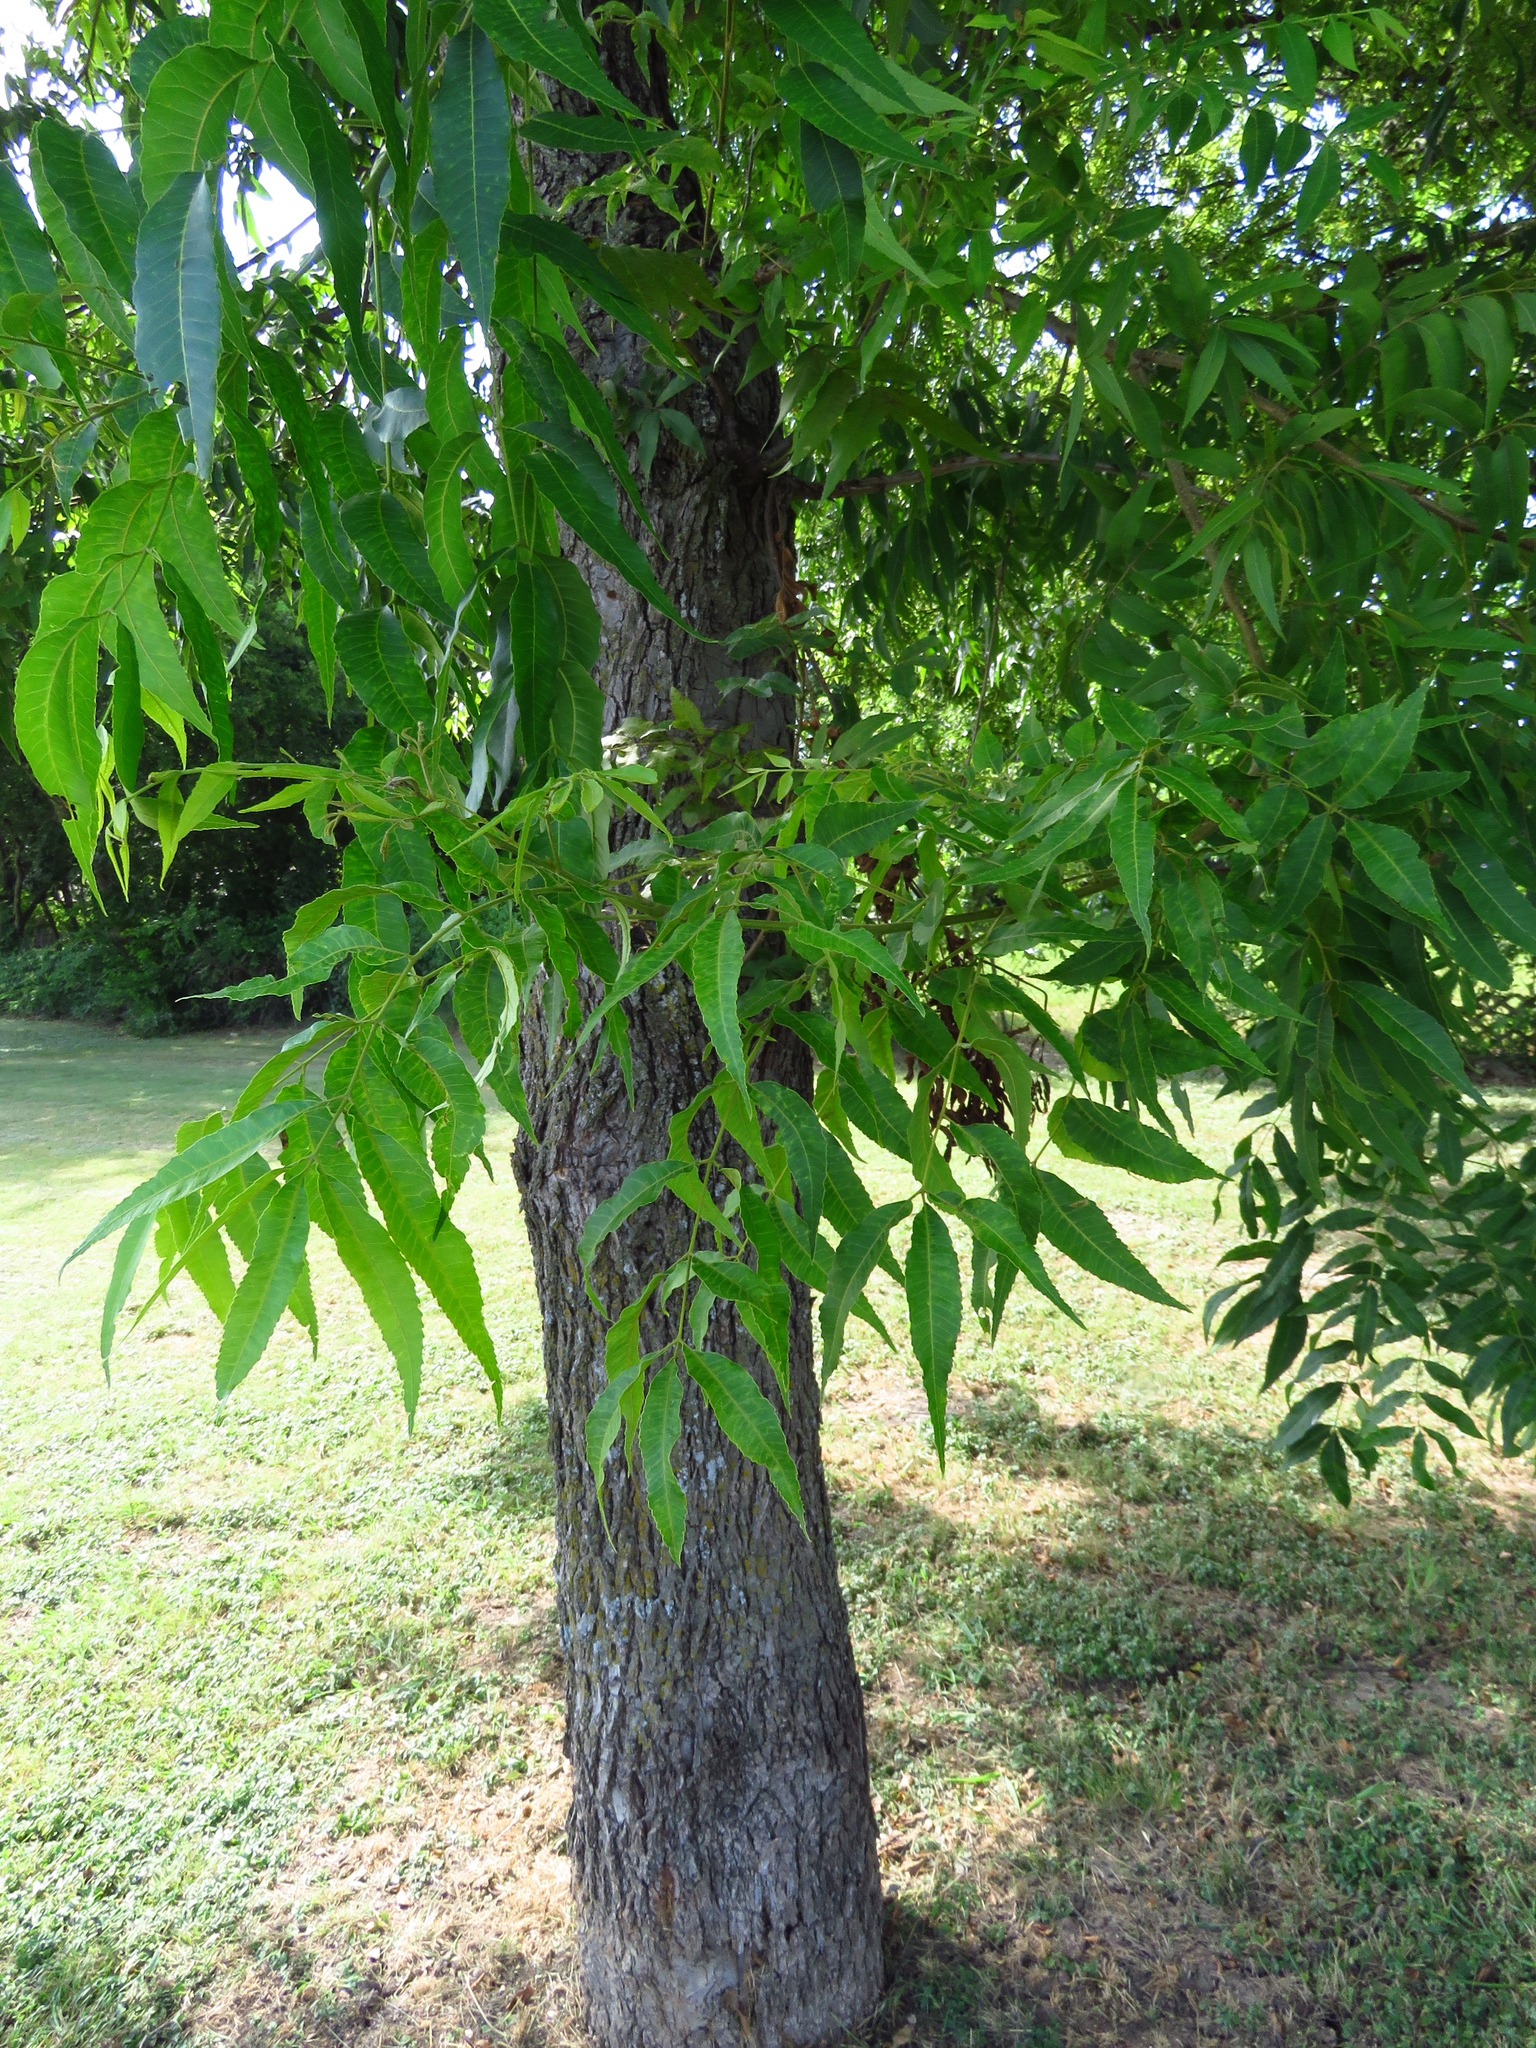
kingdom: Plantae
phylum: Tracheophyta
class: Magnoliopsida
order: Fagales
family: Juglandaceae
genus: Carya
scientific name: Carya illinoinensis
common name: Pecan
